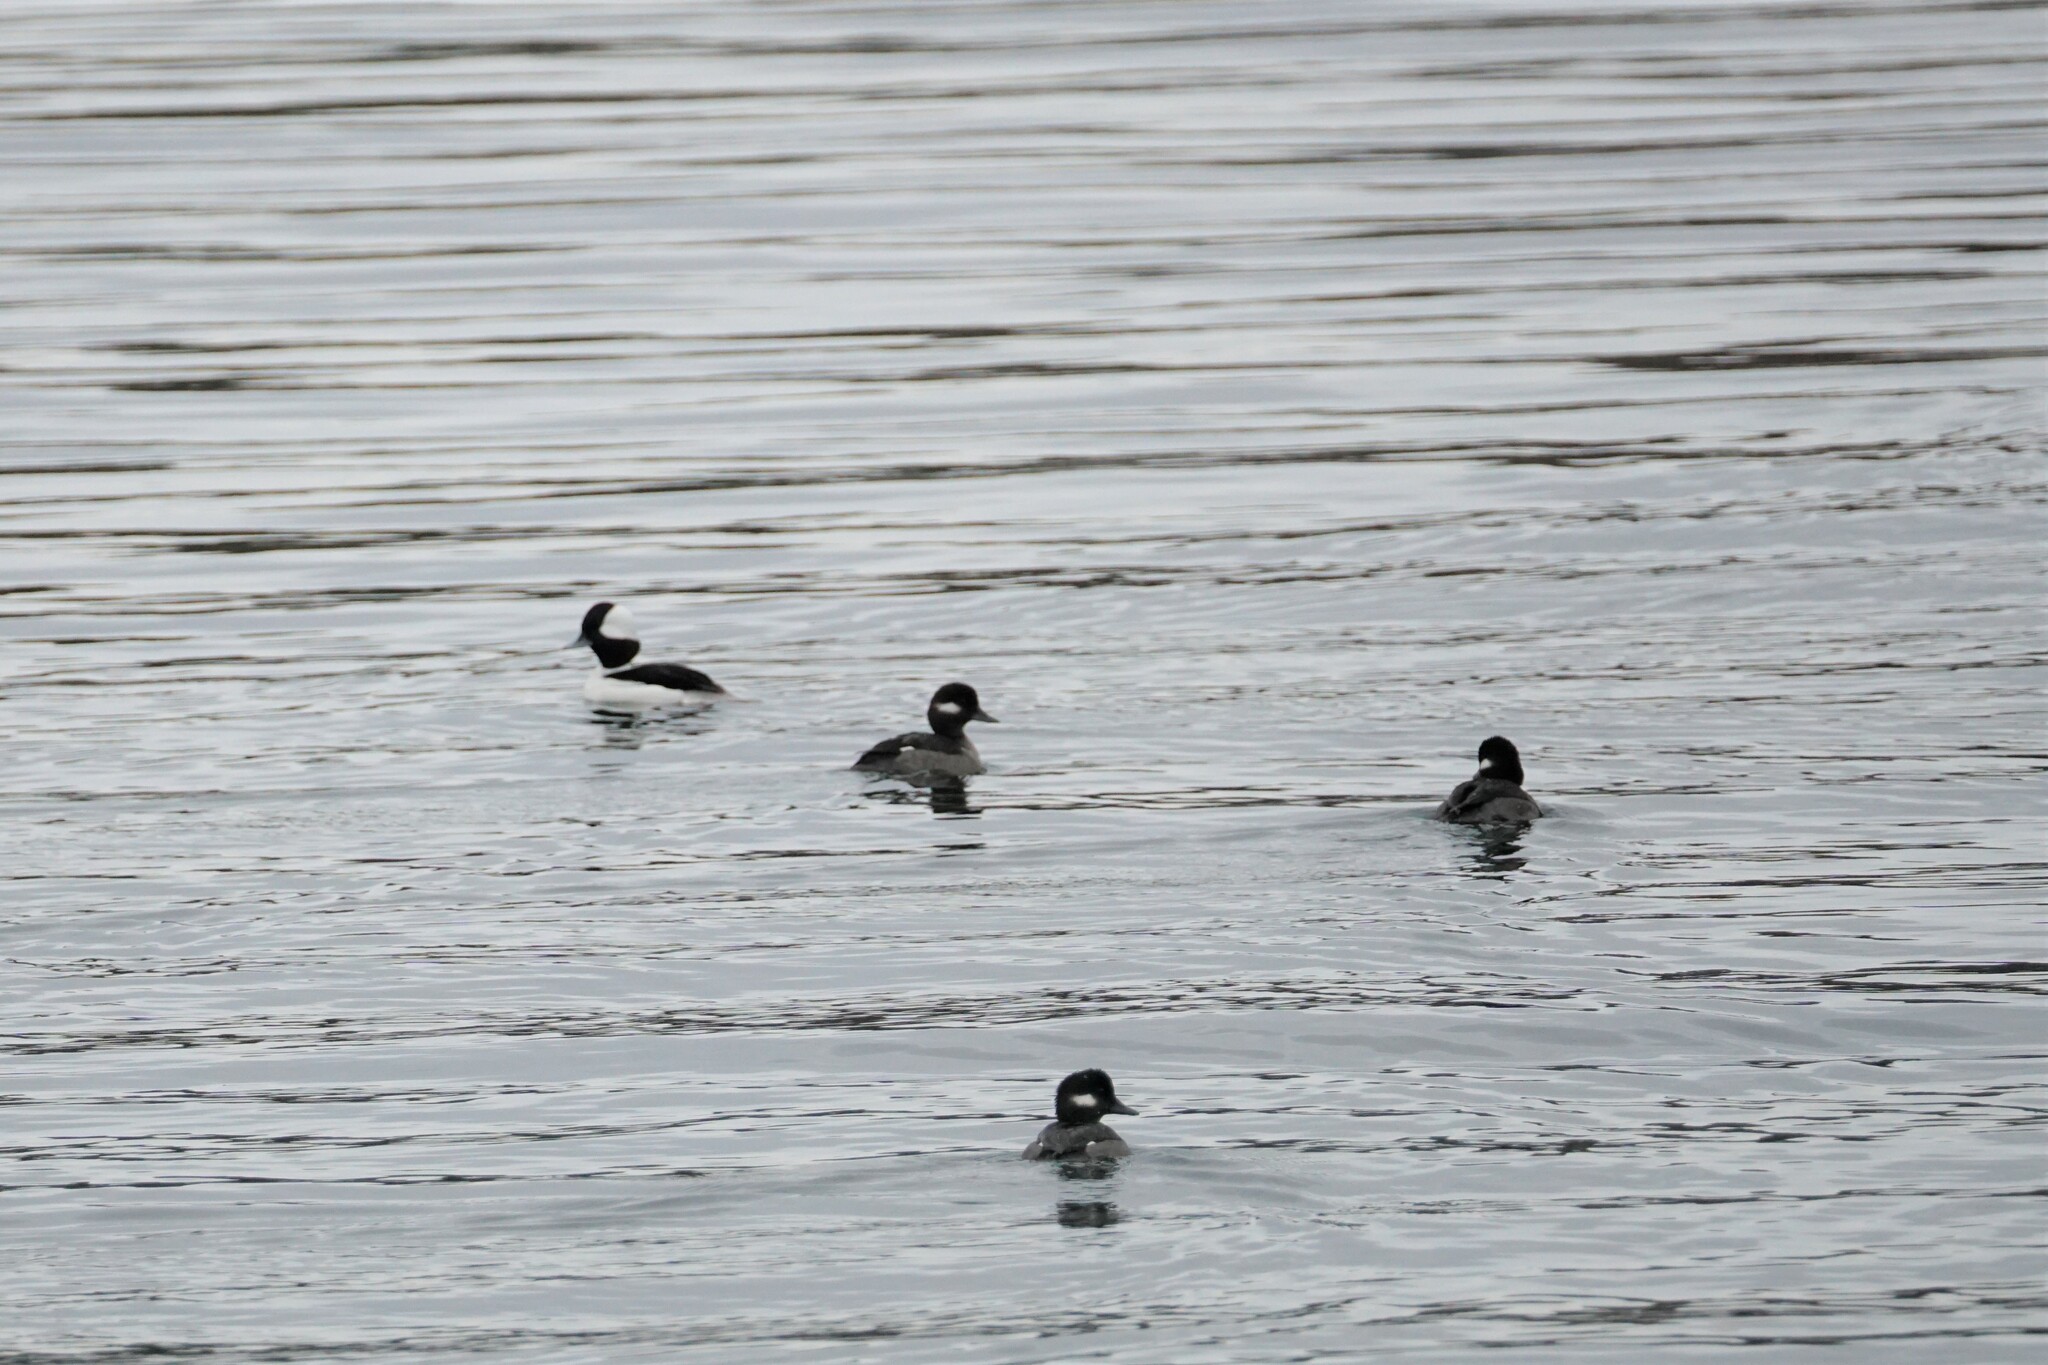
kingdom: Animalia
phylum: Chordata
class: Aves
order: Anseriformes
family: Anatidae
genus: Bucephala
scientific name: Bucephala albeola
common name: Bufflehead
